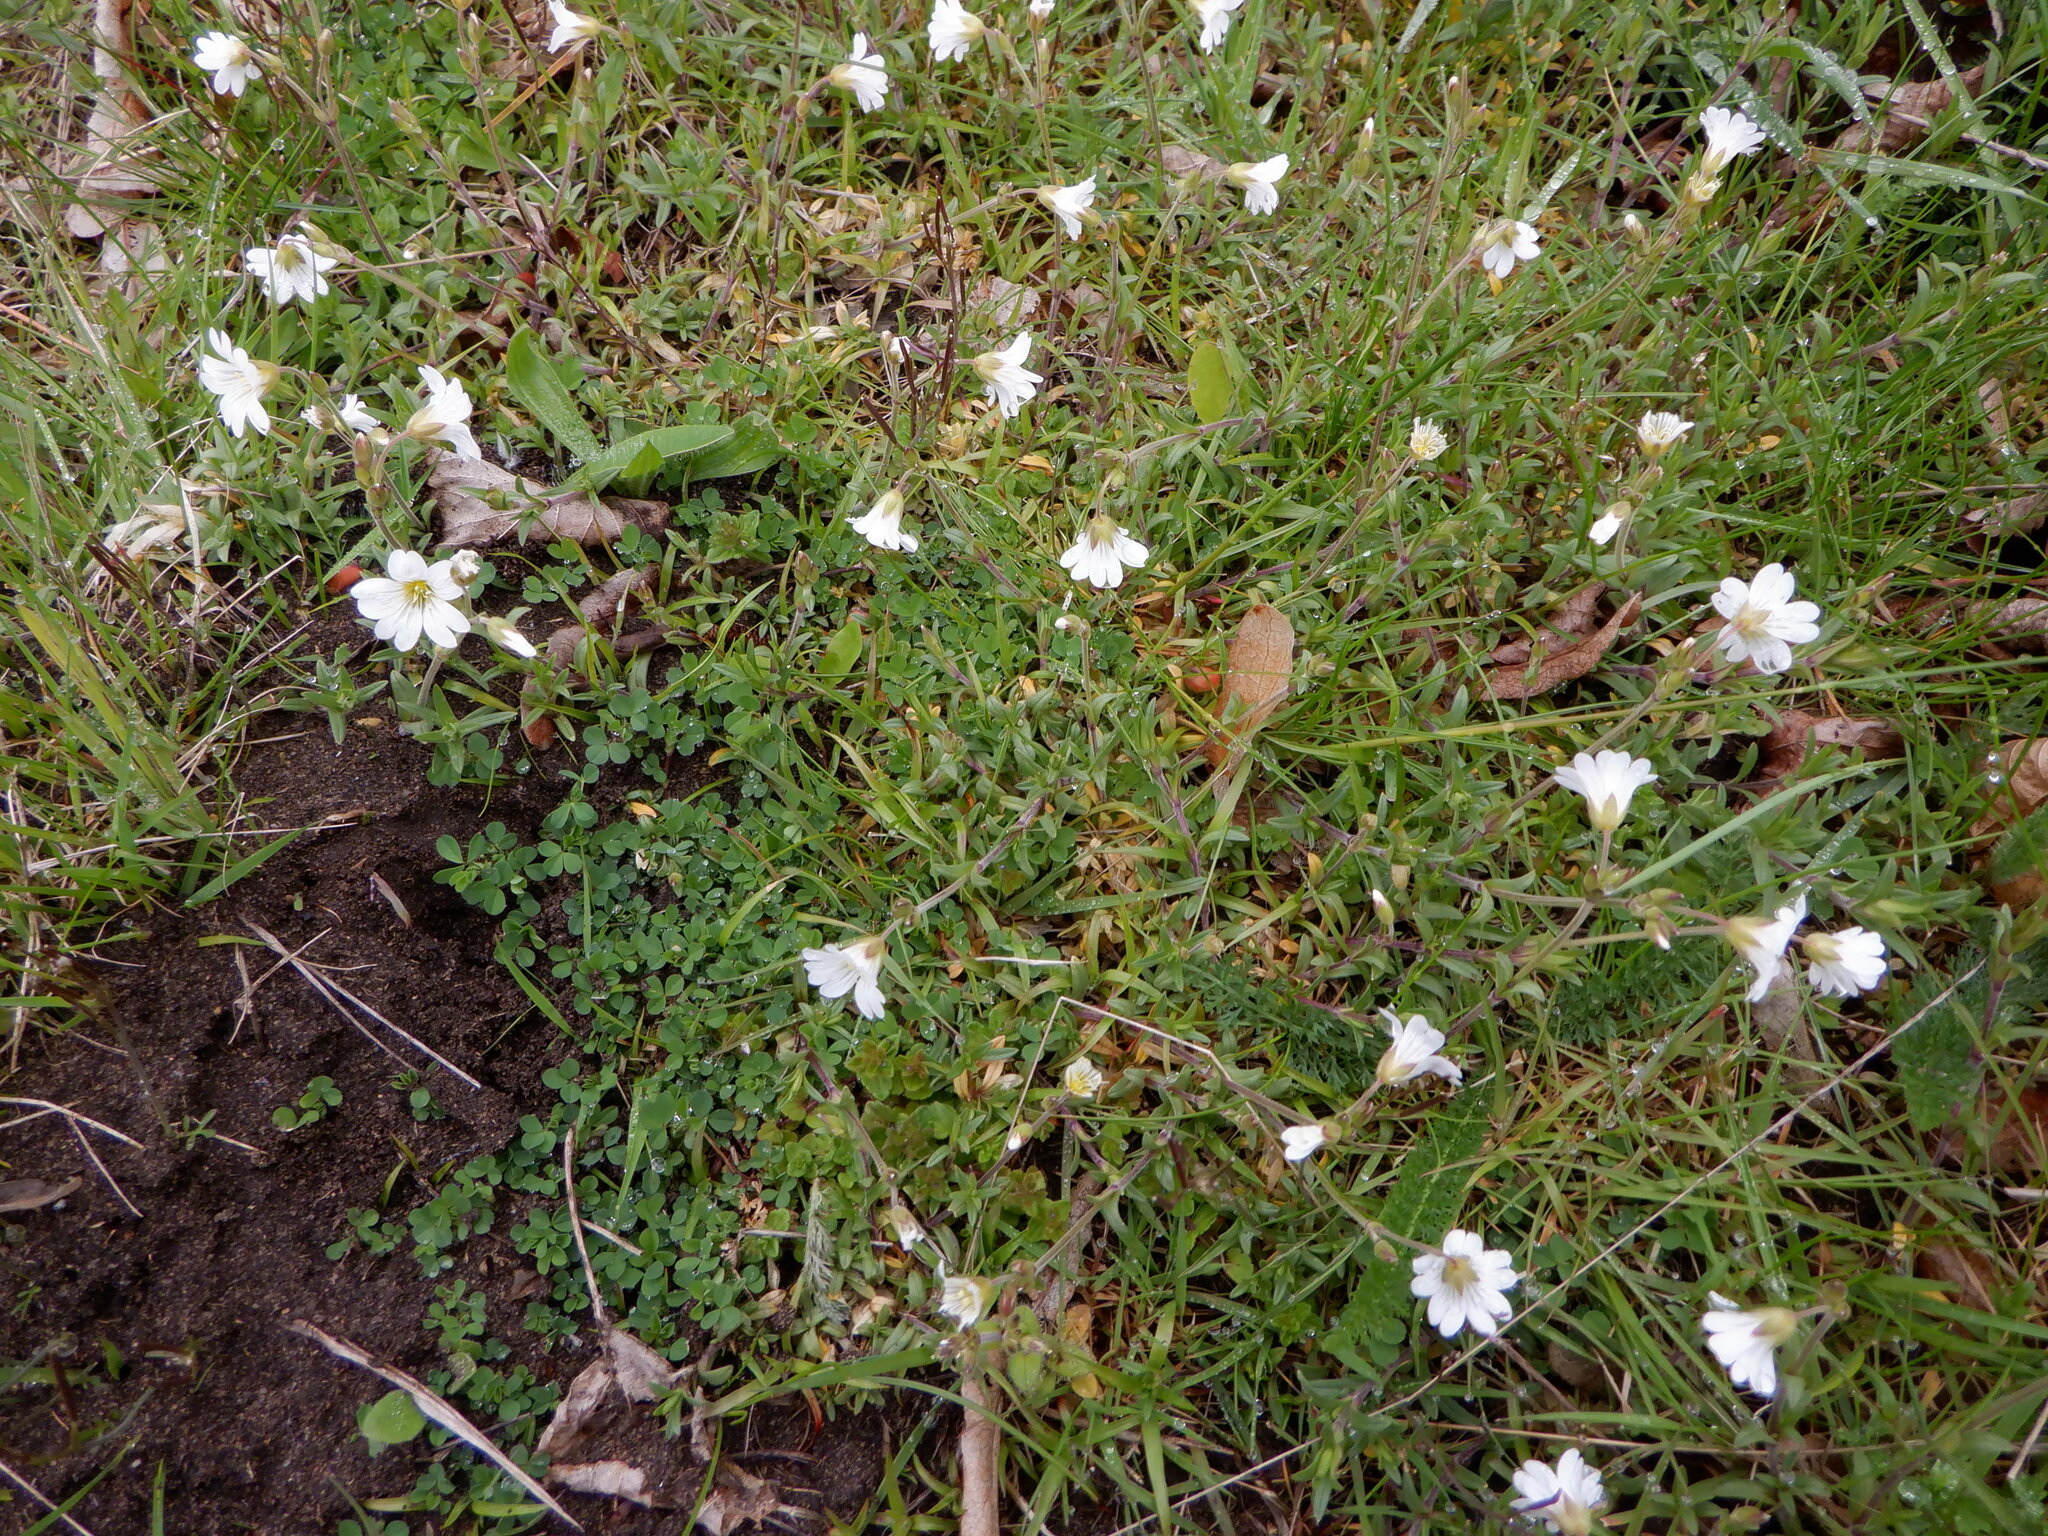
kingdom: Plantae
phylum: Tracheophyta
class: Magnoliopsida
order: Caryophyllales
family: Caryophyllaceae
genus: Cerastium
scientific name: Cerastium arvense
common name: Field mouse-ear
